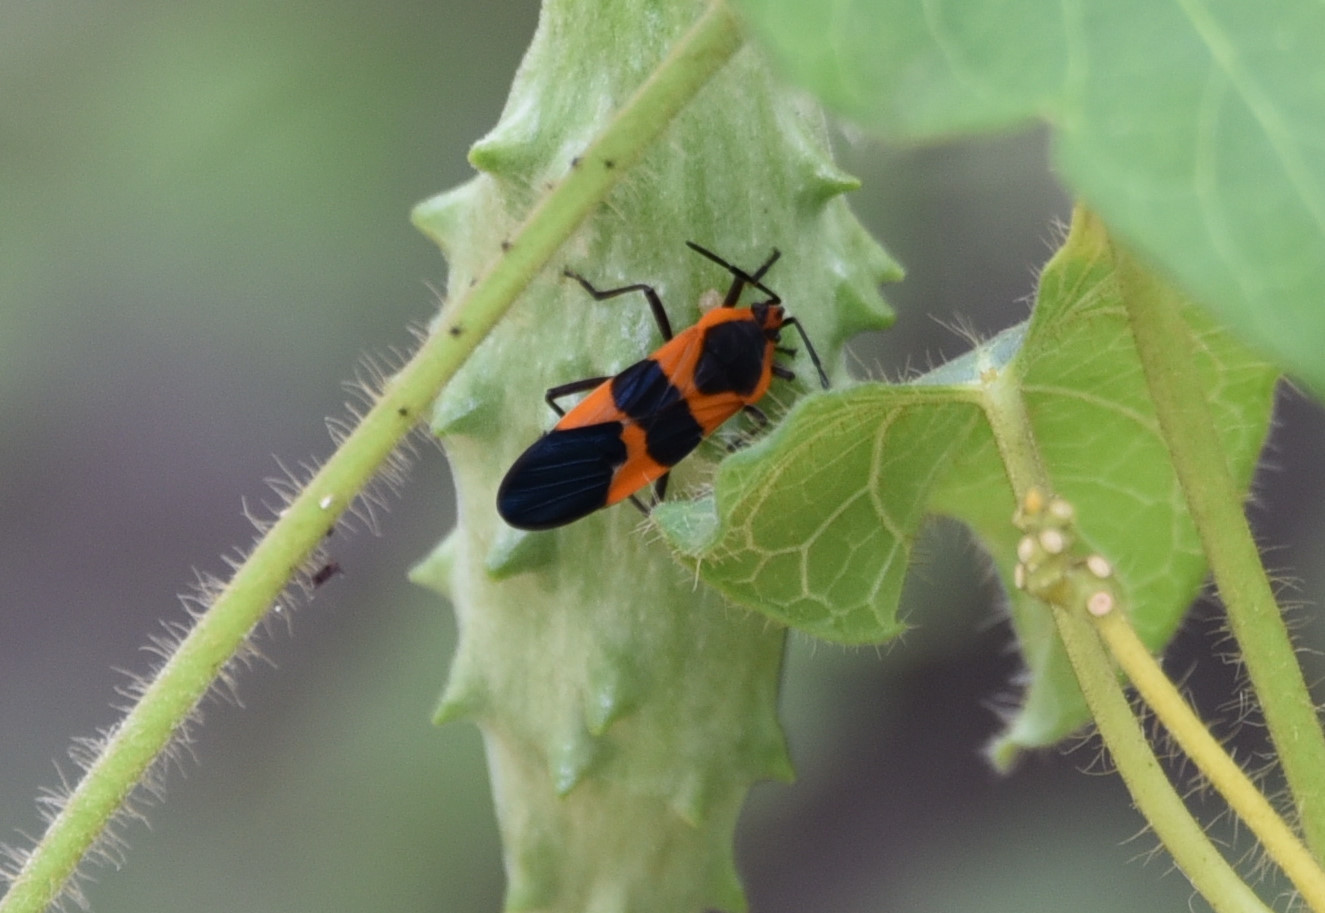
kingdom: Animalia
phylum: Arthropoda
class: Insecta
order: Hemiptera
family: Lygaeidae
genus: Oncopeltus
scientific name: Oncopeltus fasciatus
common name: Large milkweed bug
